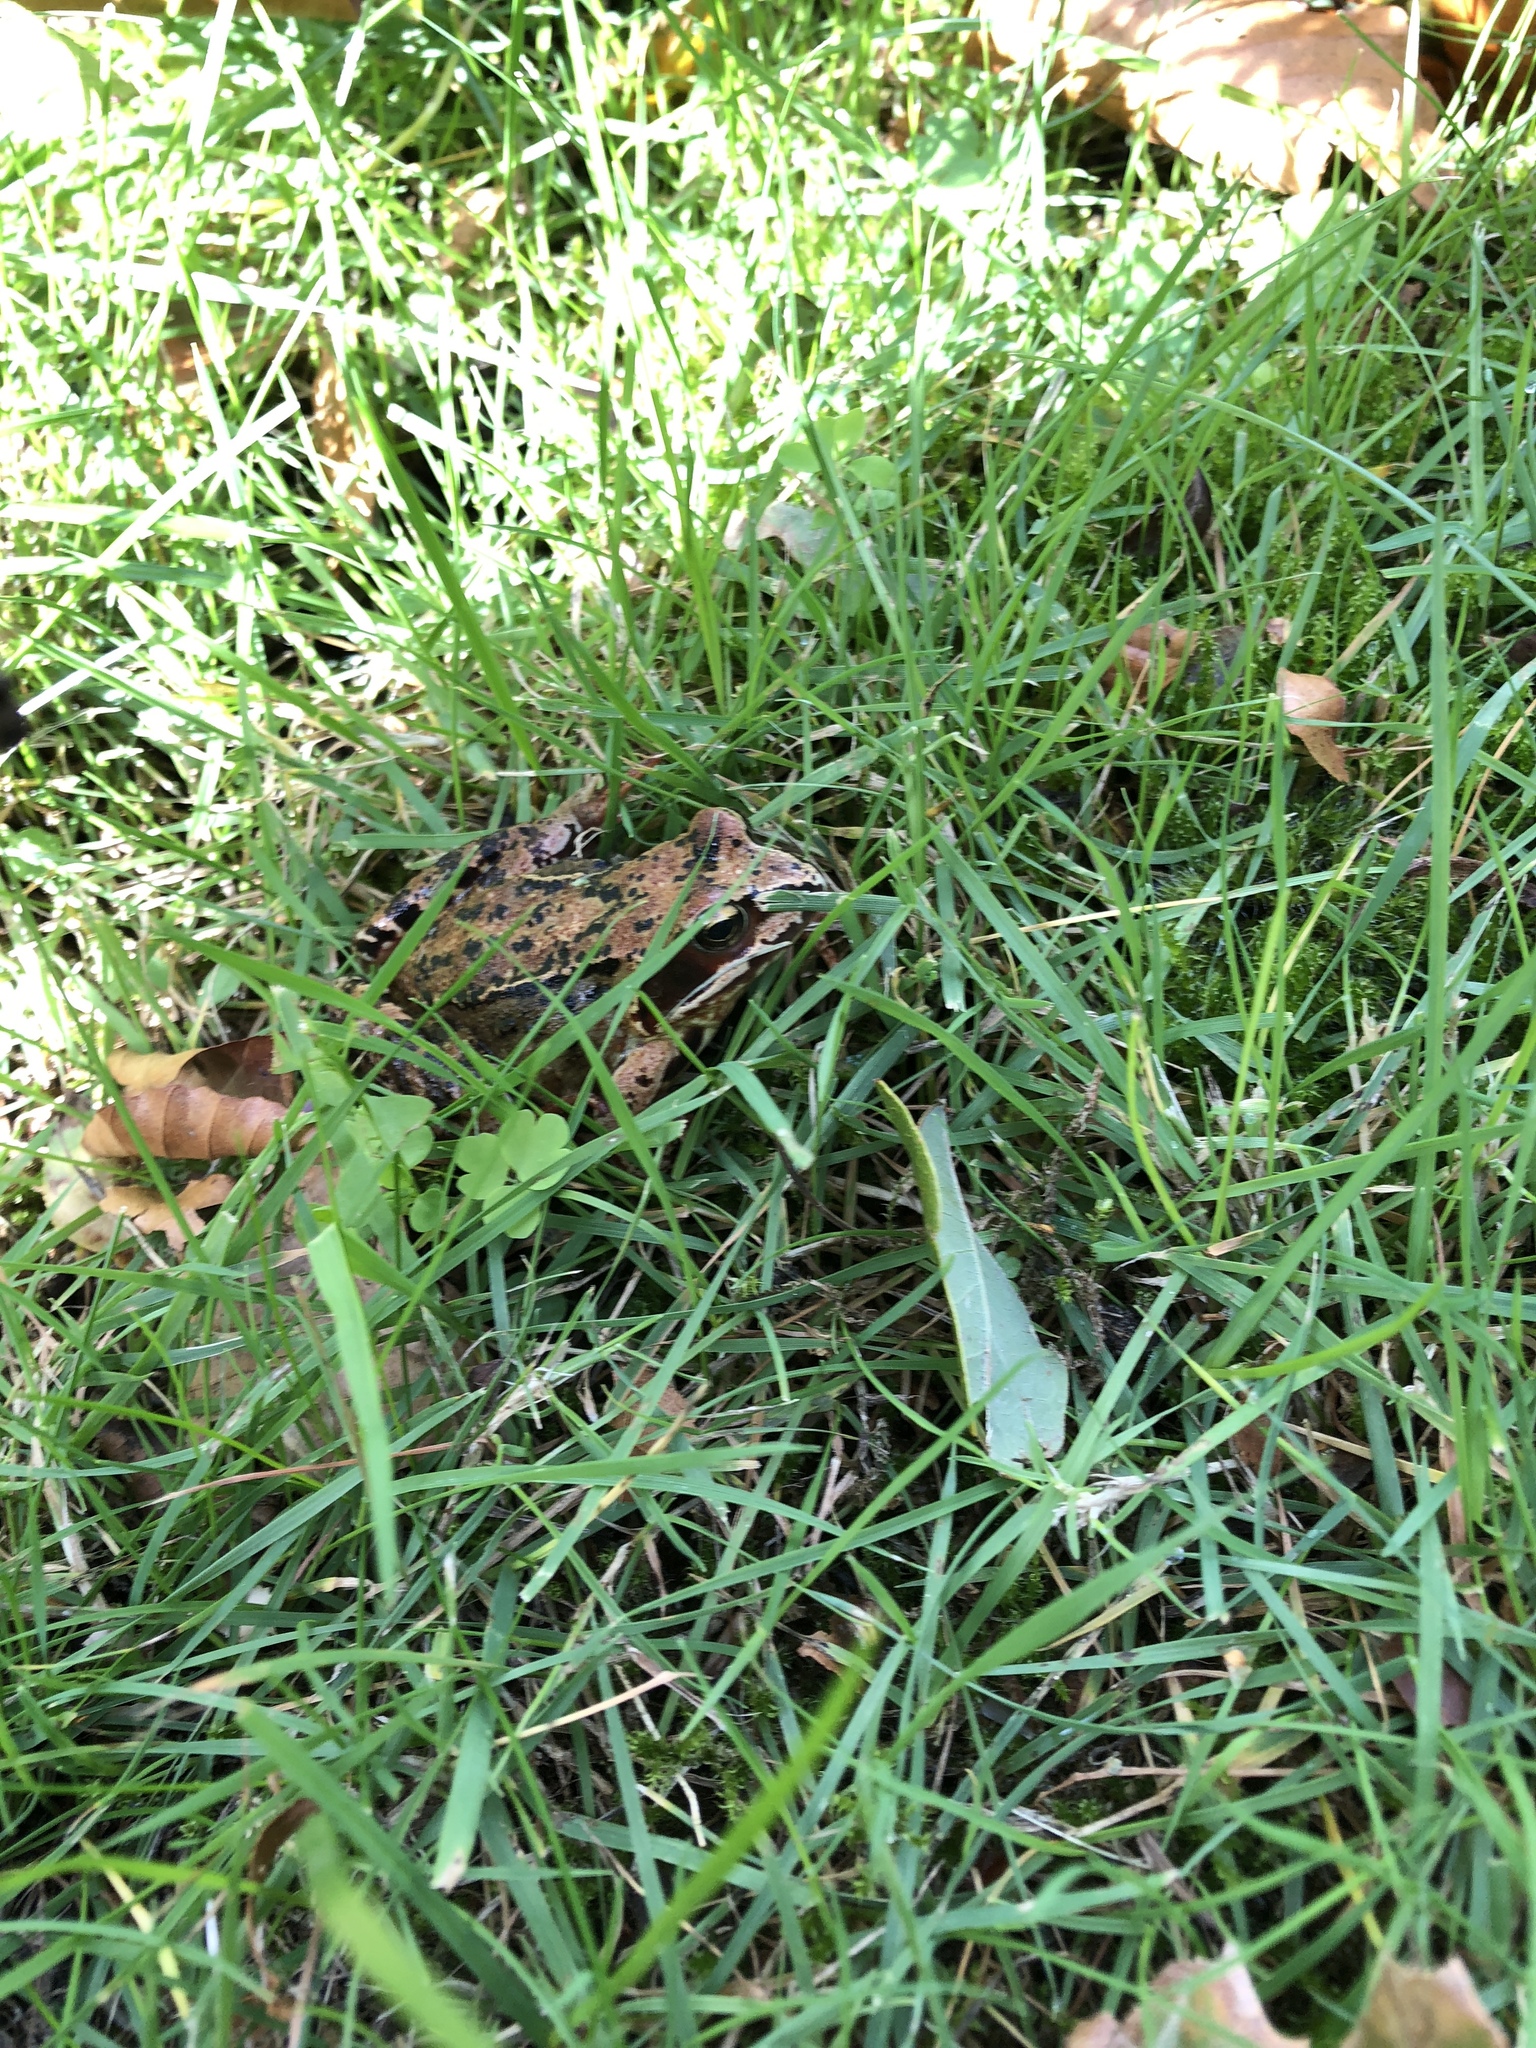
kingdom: Animalia
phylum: Chordata
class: Amphibia
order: Anura
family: Ranidae
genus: Rana
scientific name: Rana temporaria
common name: Common frog
